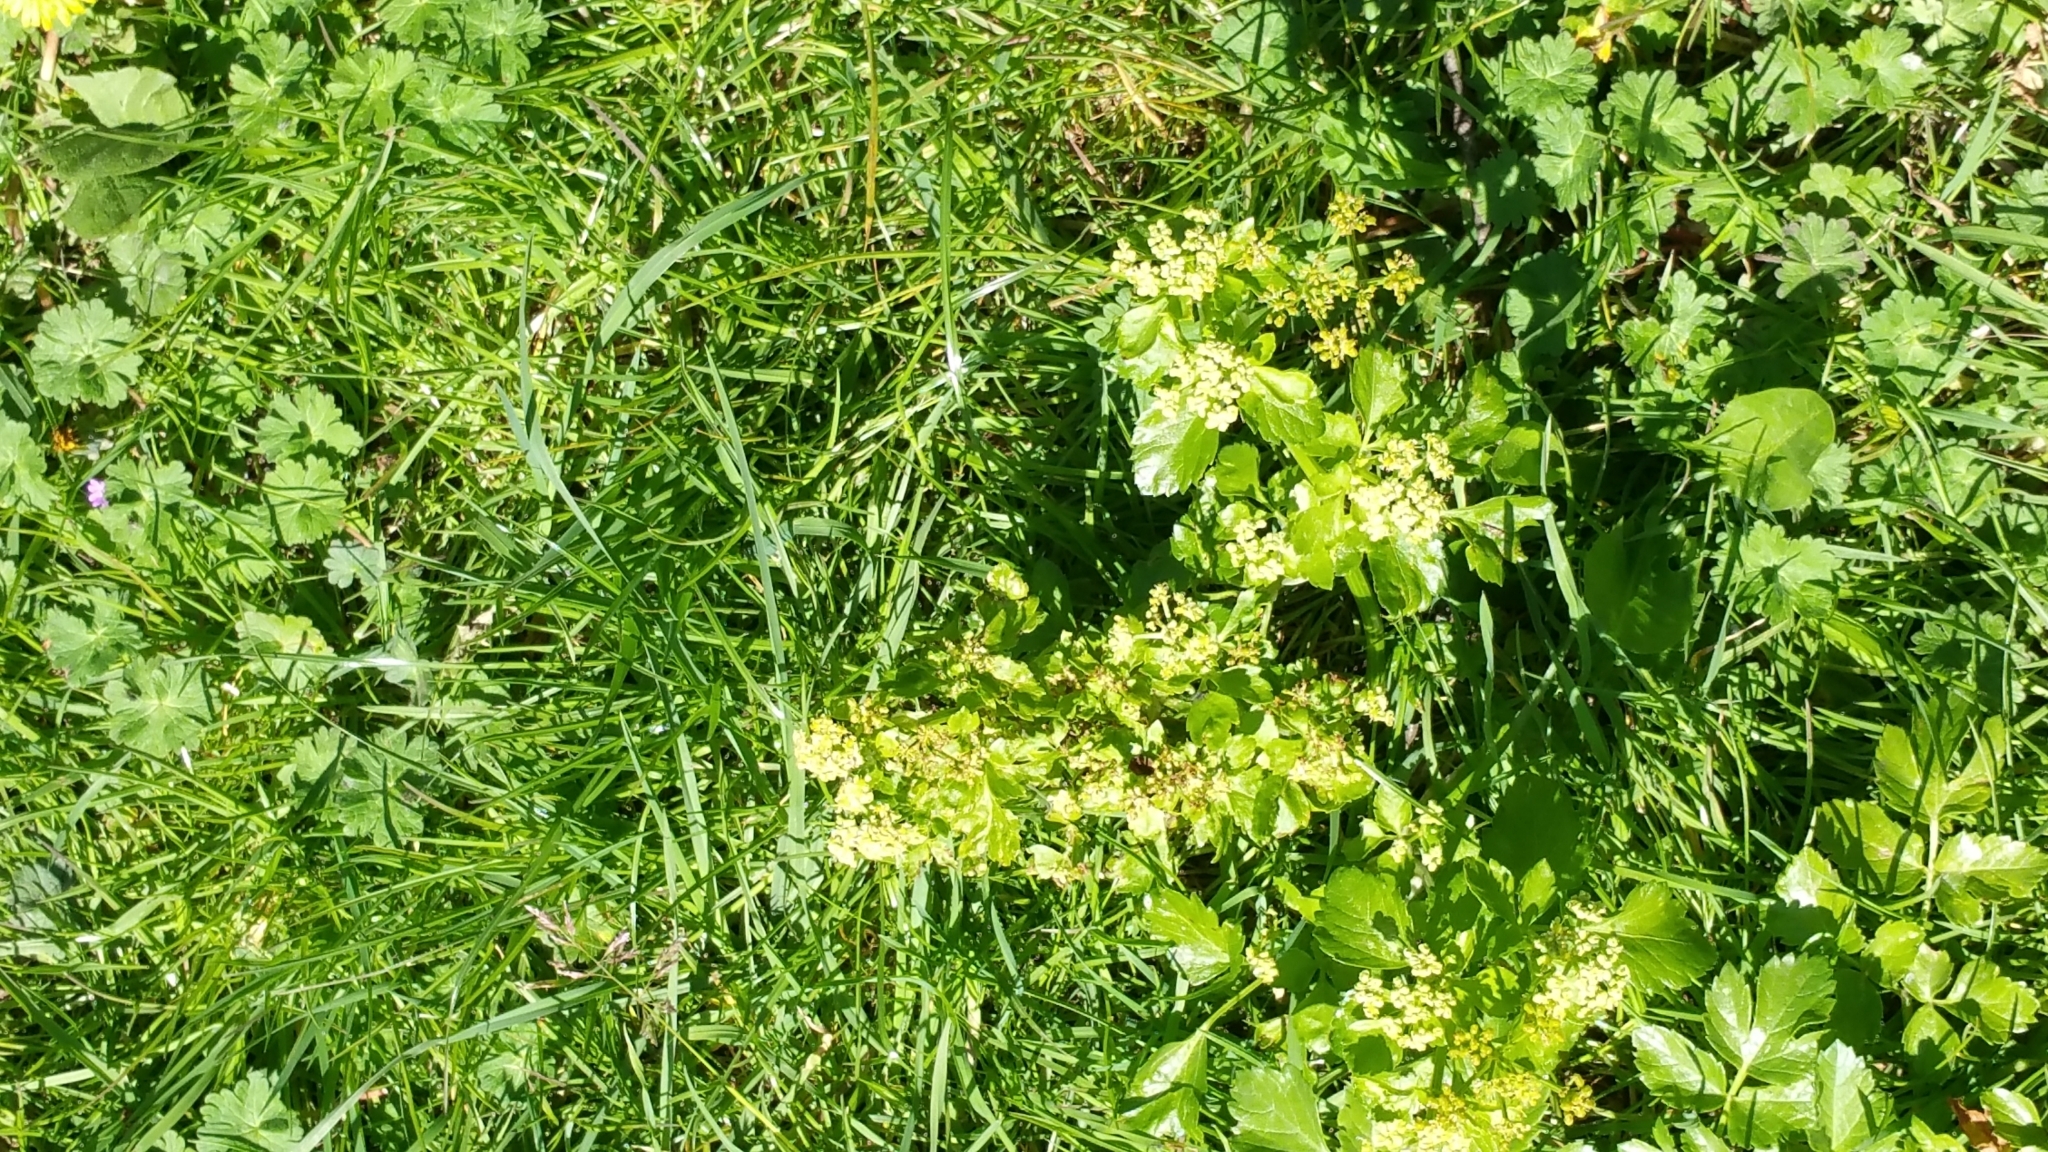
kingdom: Plantae
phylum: Tracheophyta
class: Magnoliopsida
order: Apiales
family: Apiaceae
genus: Smyrnium
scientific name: Smyrnium olusatrum
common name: Alexanders
